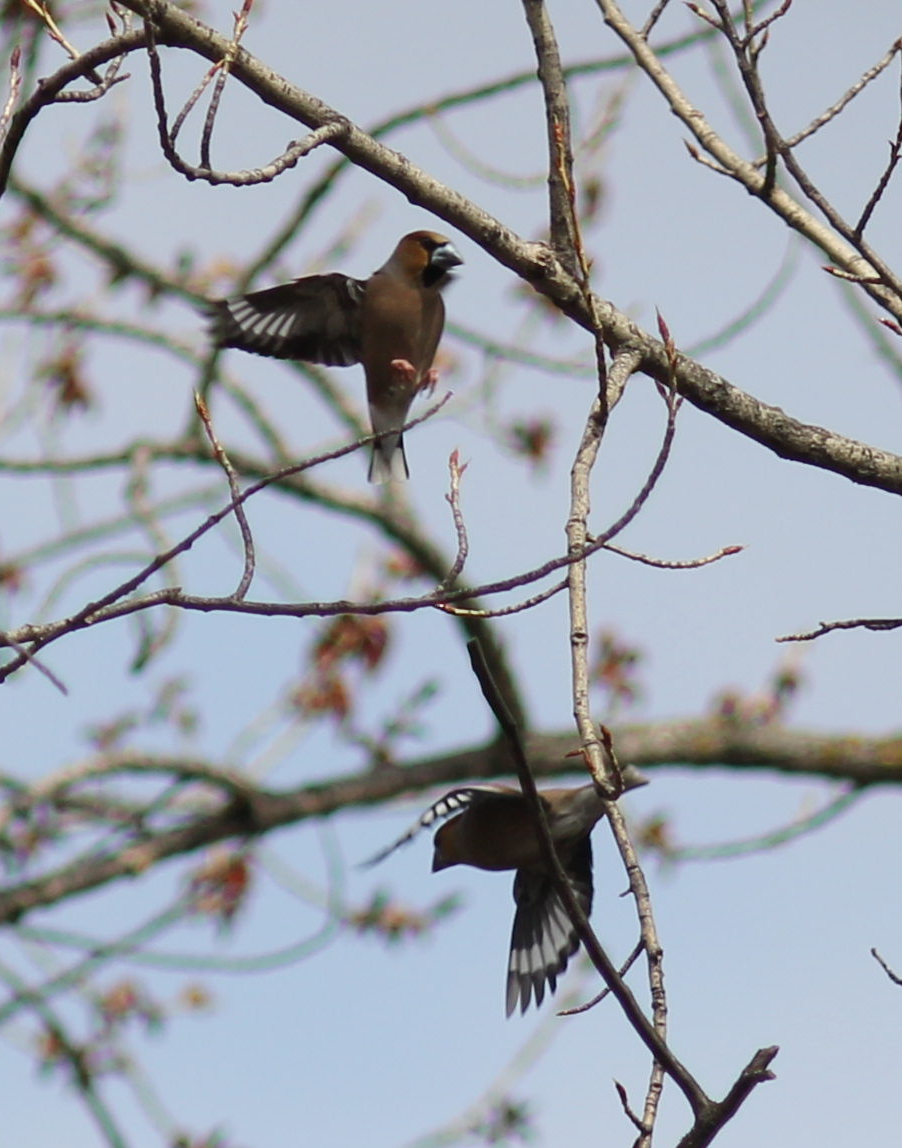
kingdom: Animalia
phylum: Chordata
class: Aves
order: Passeriformes
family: Fringillidae
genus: Coccothraustes
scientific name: Coccothraustes coccothraustes
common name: Hawfinch
